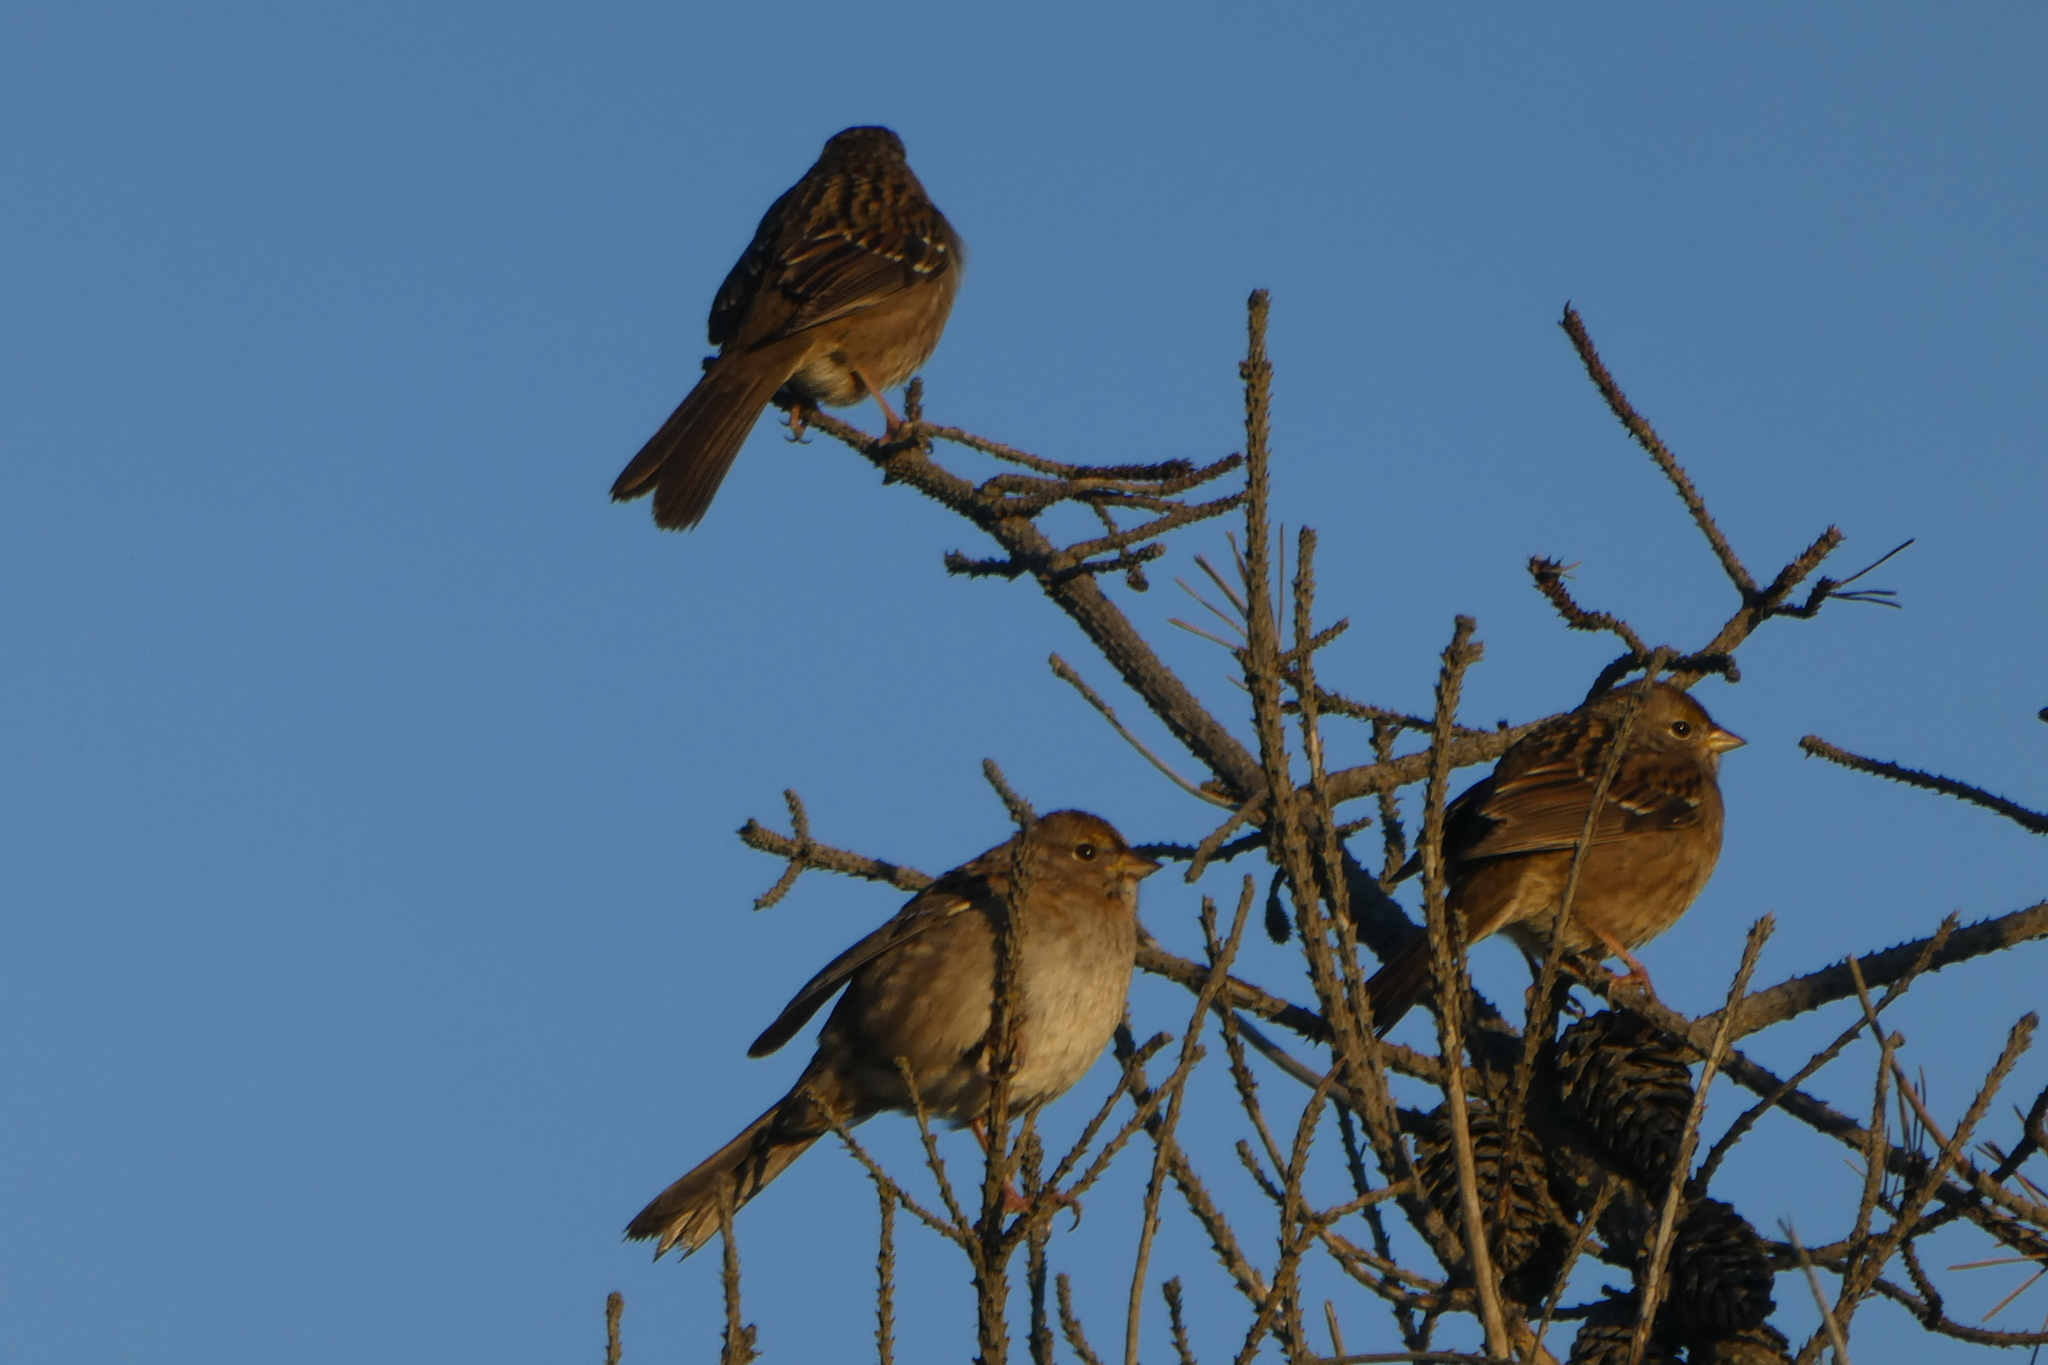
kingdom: Animalia
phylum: Chordata
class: Aves
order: Passeriformes
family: Passerellidae
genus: Zonotrichia
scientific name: Zonotrichia atricapilla
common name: Golden-crowned sparrow
